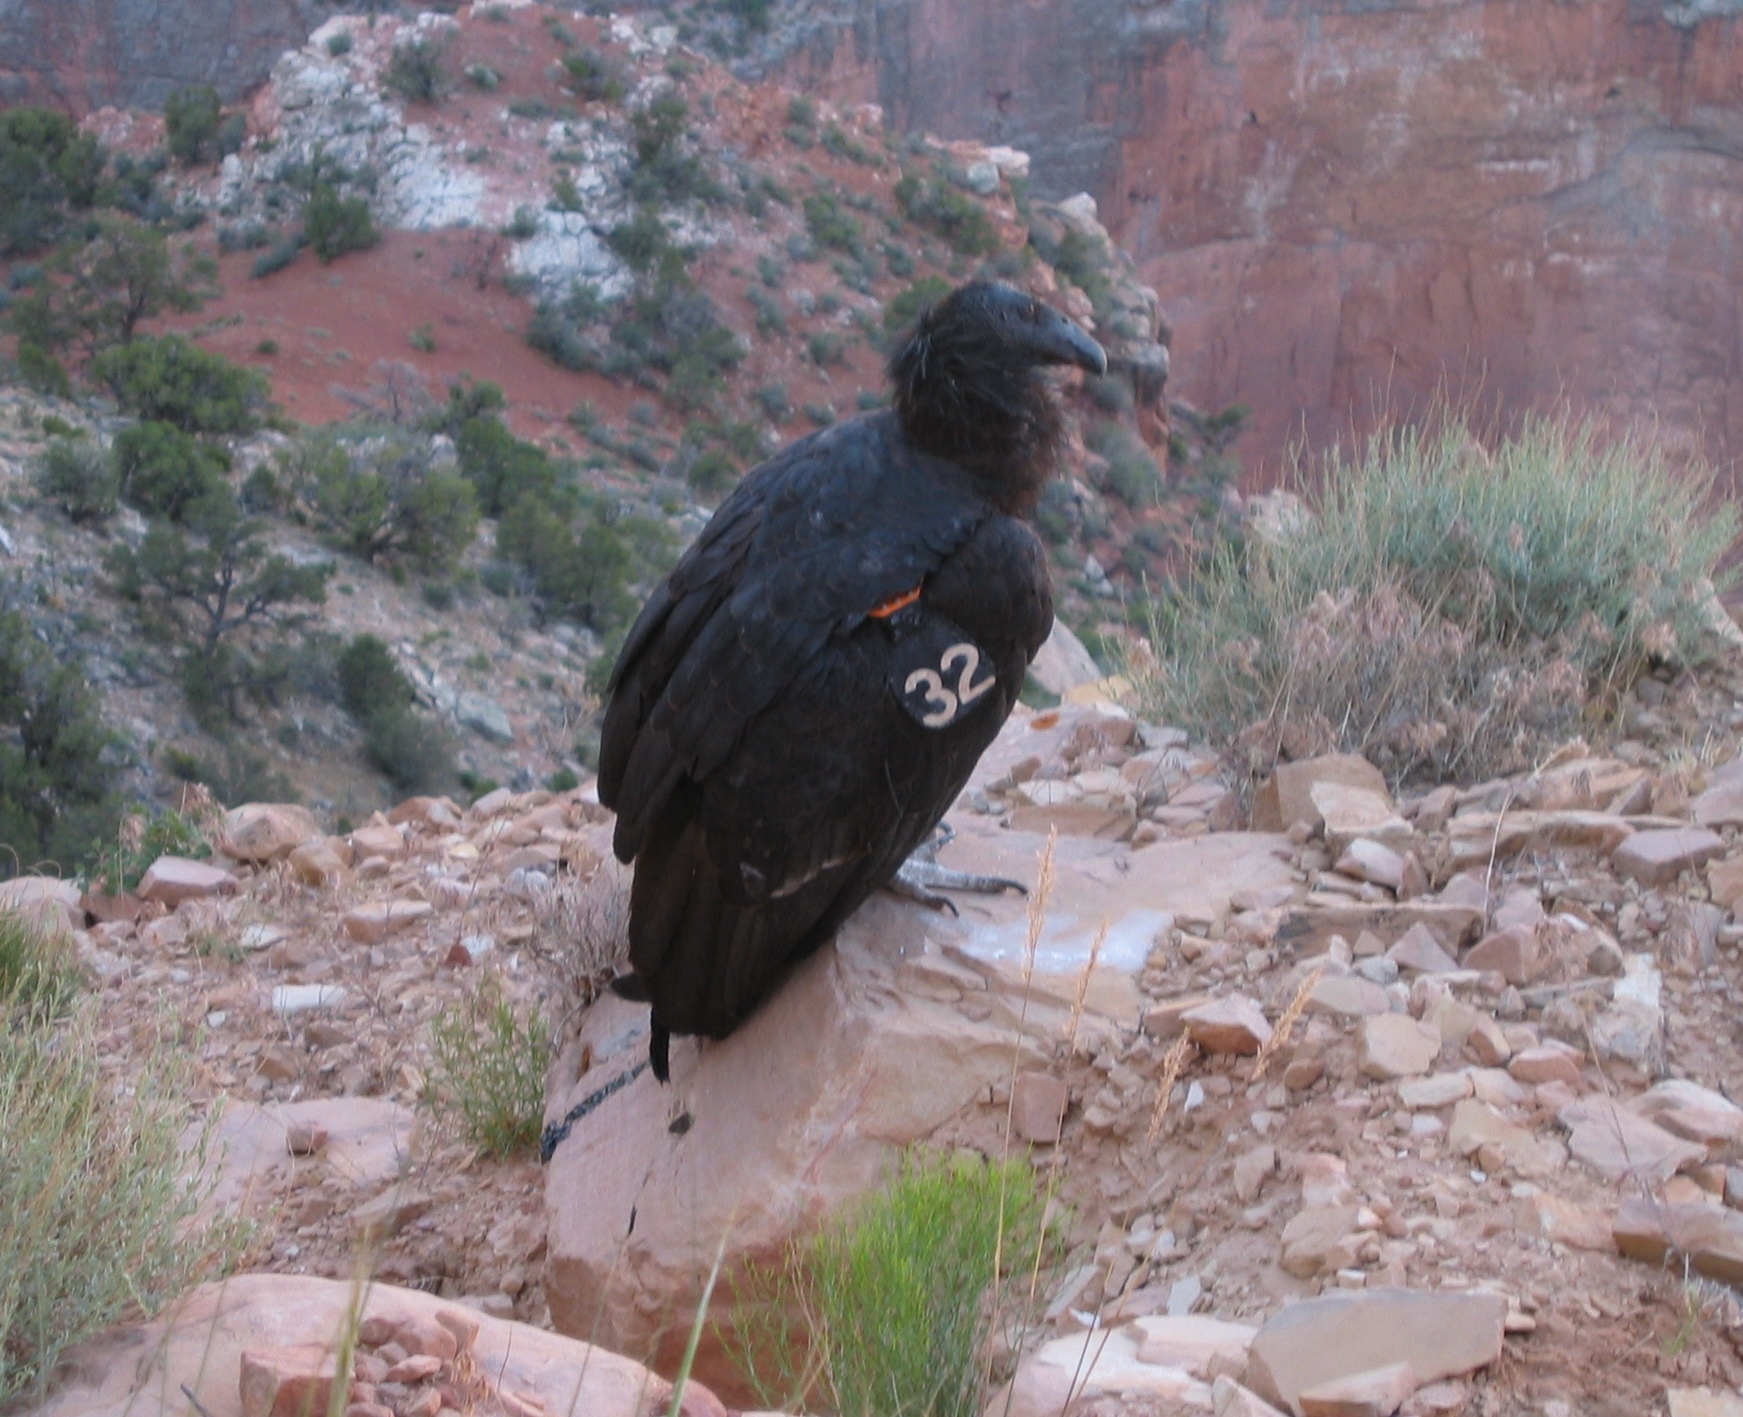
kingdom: Animalia
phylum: Chordata
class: Aves
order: Accipitriformes
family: Cathartidae
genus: Gymnogyps
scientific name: Gymnogyps californianus
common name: California condor
